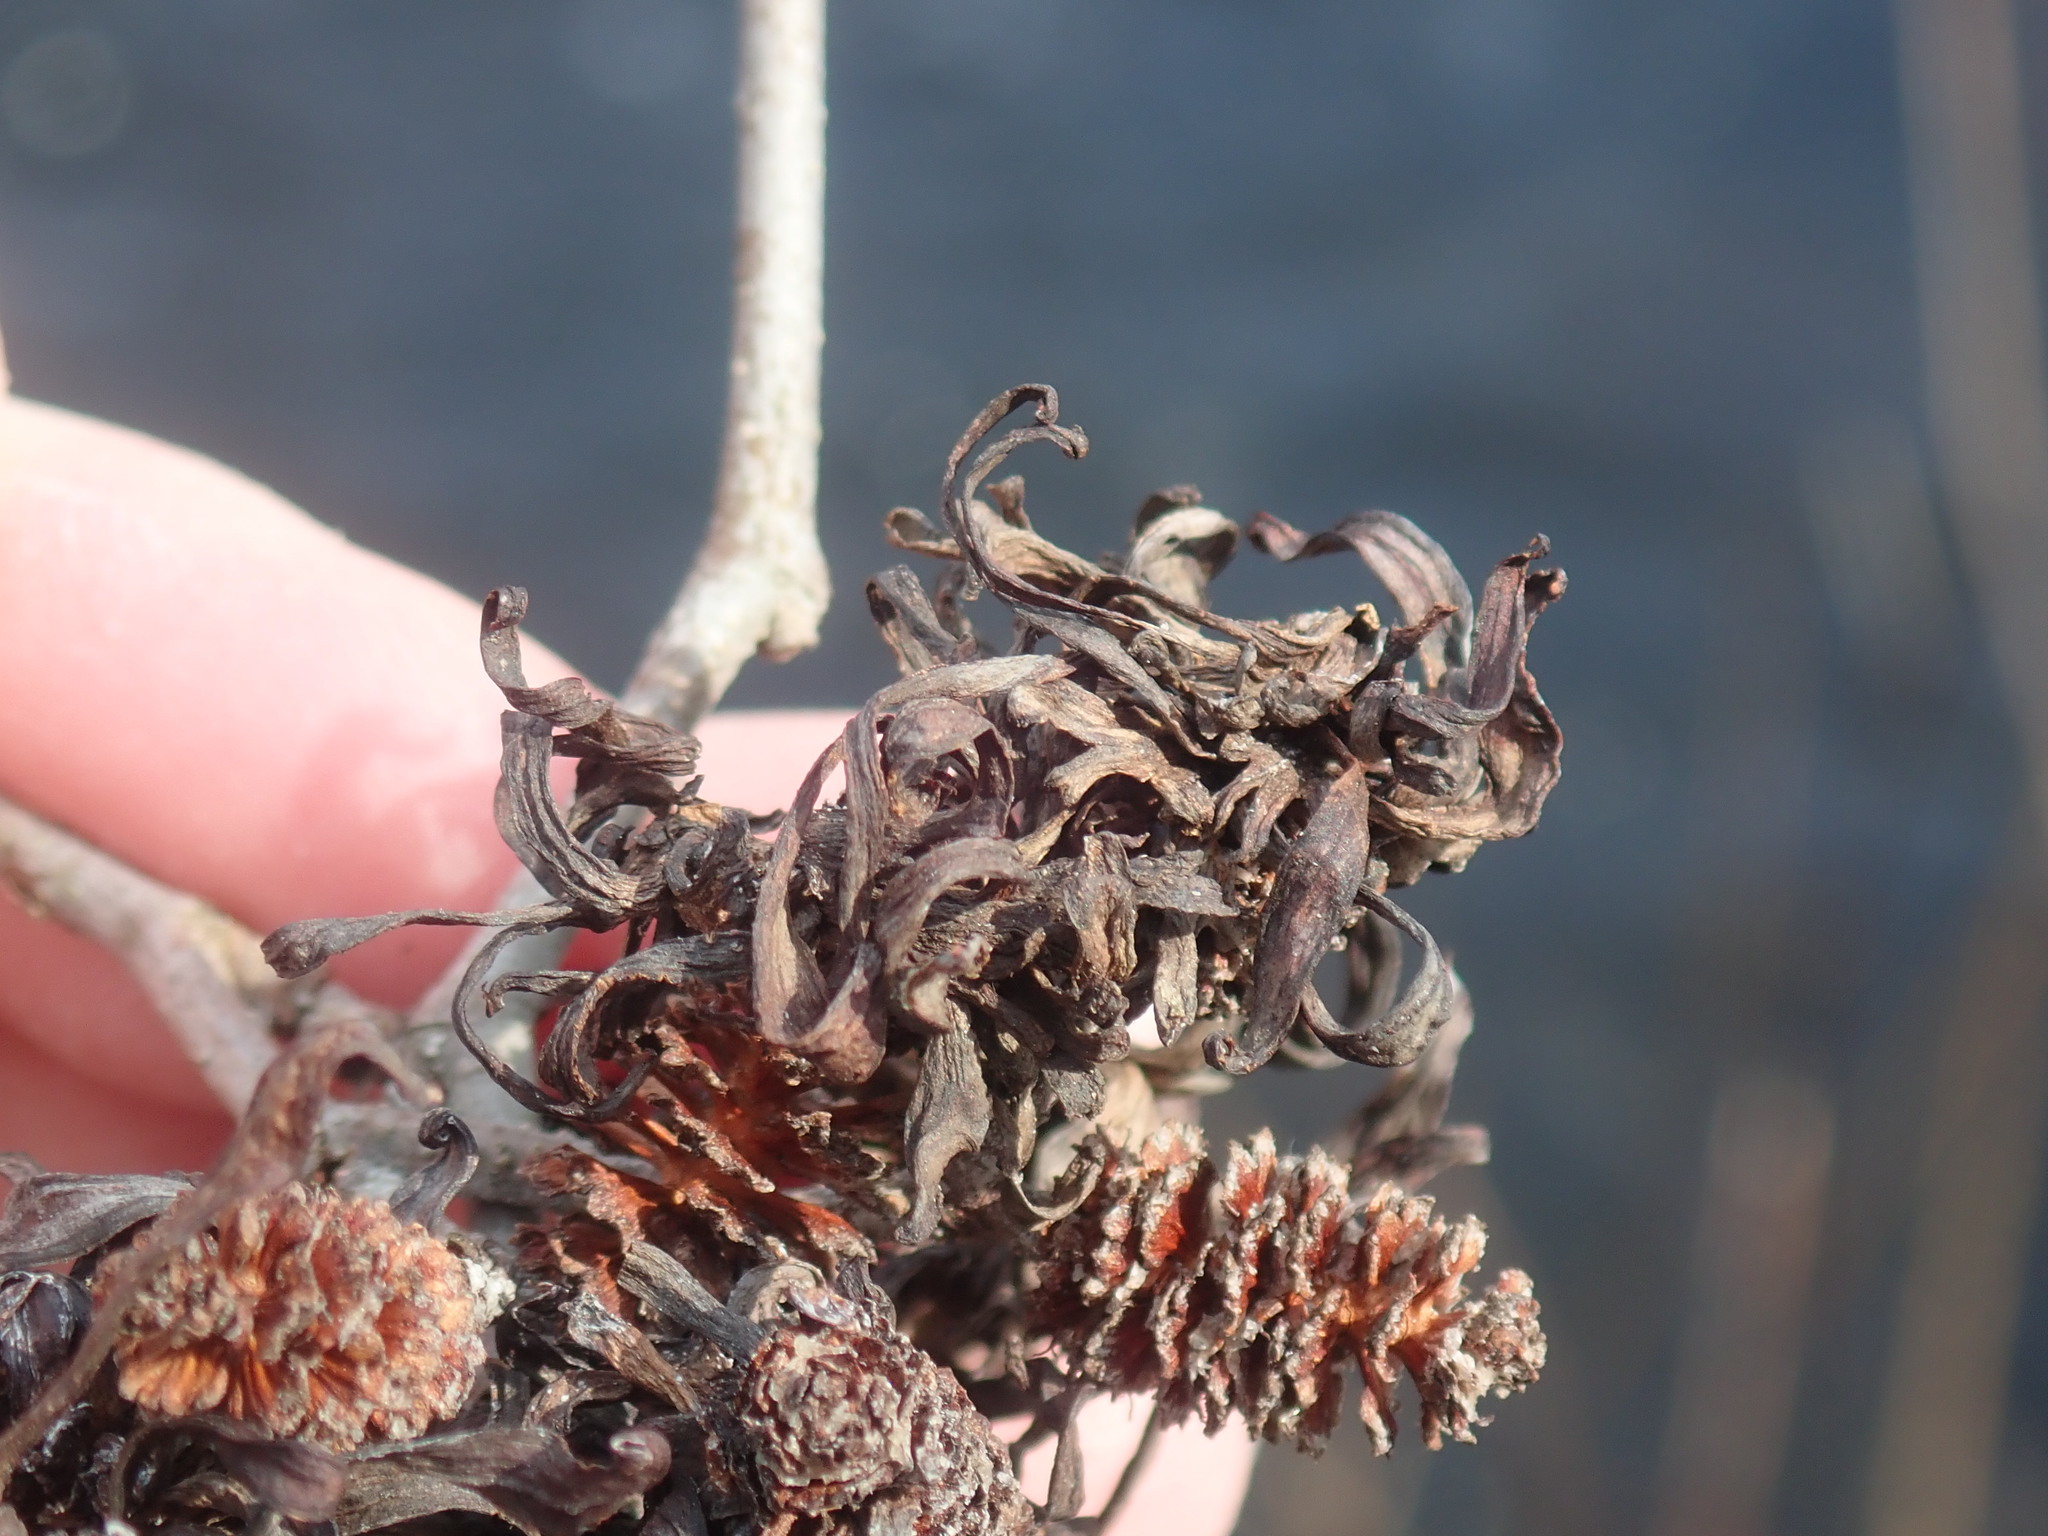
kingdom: Fungi
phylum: Ascomycota
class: Taphrinomycetes
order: Taphrinales
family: Taphrinaceae
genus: Taphrina
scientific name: Taphrina robinsoniana
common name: Eastern american alder tongue gall fungus
